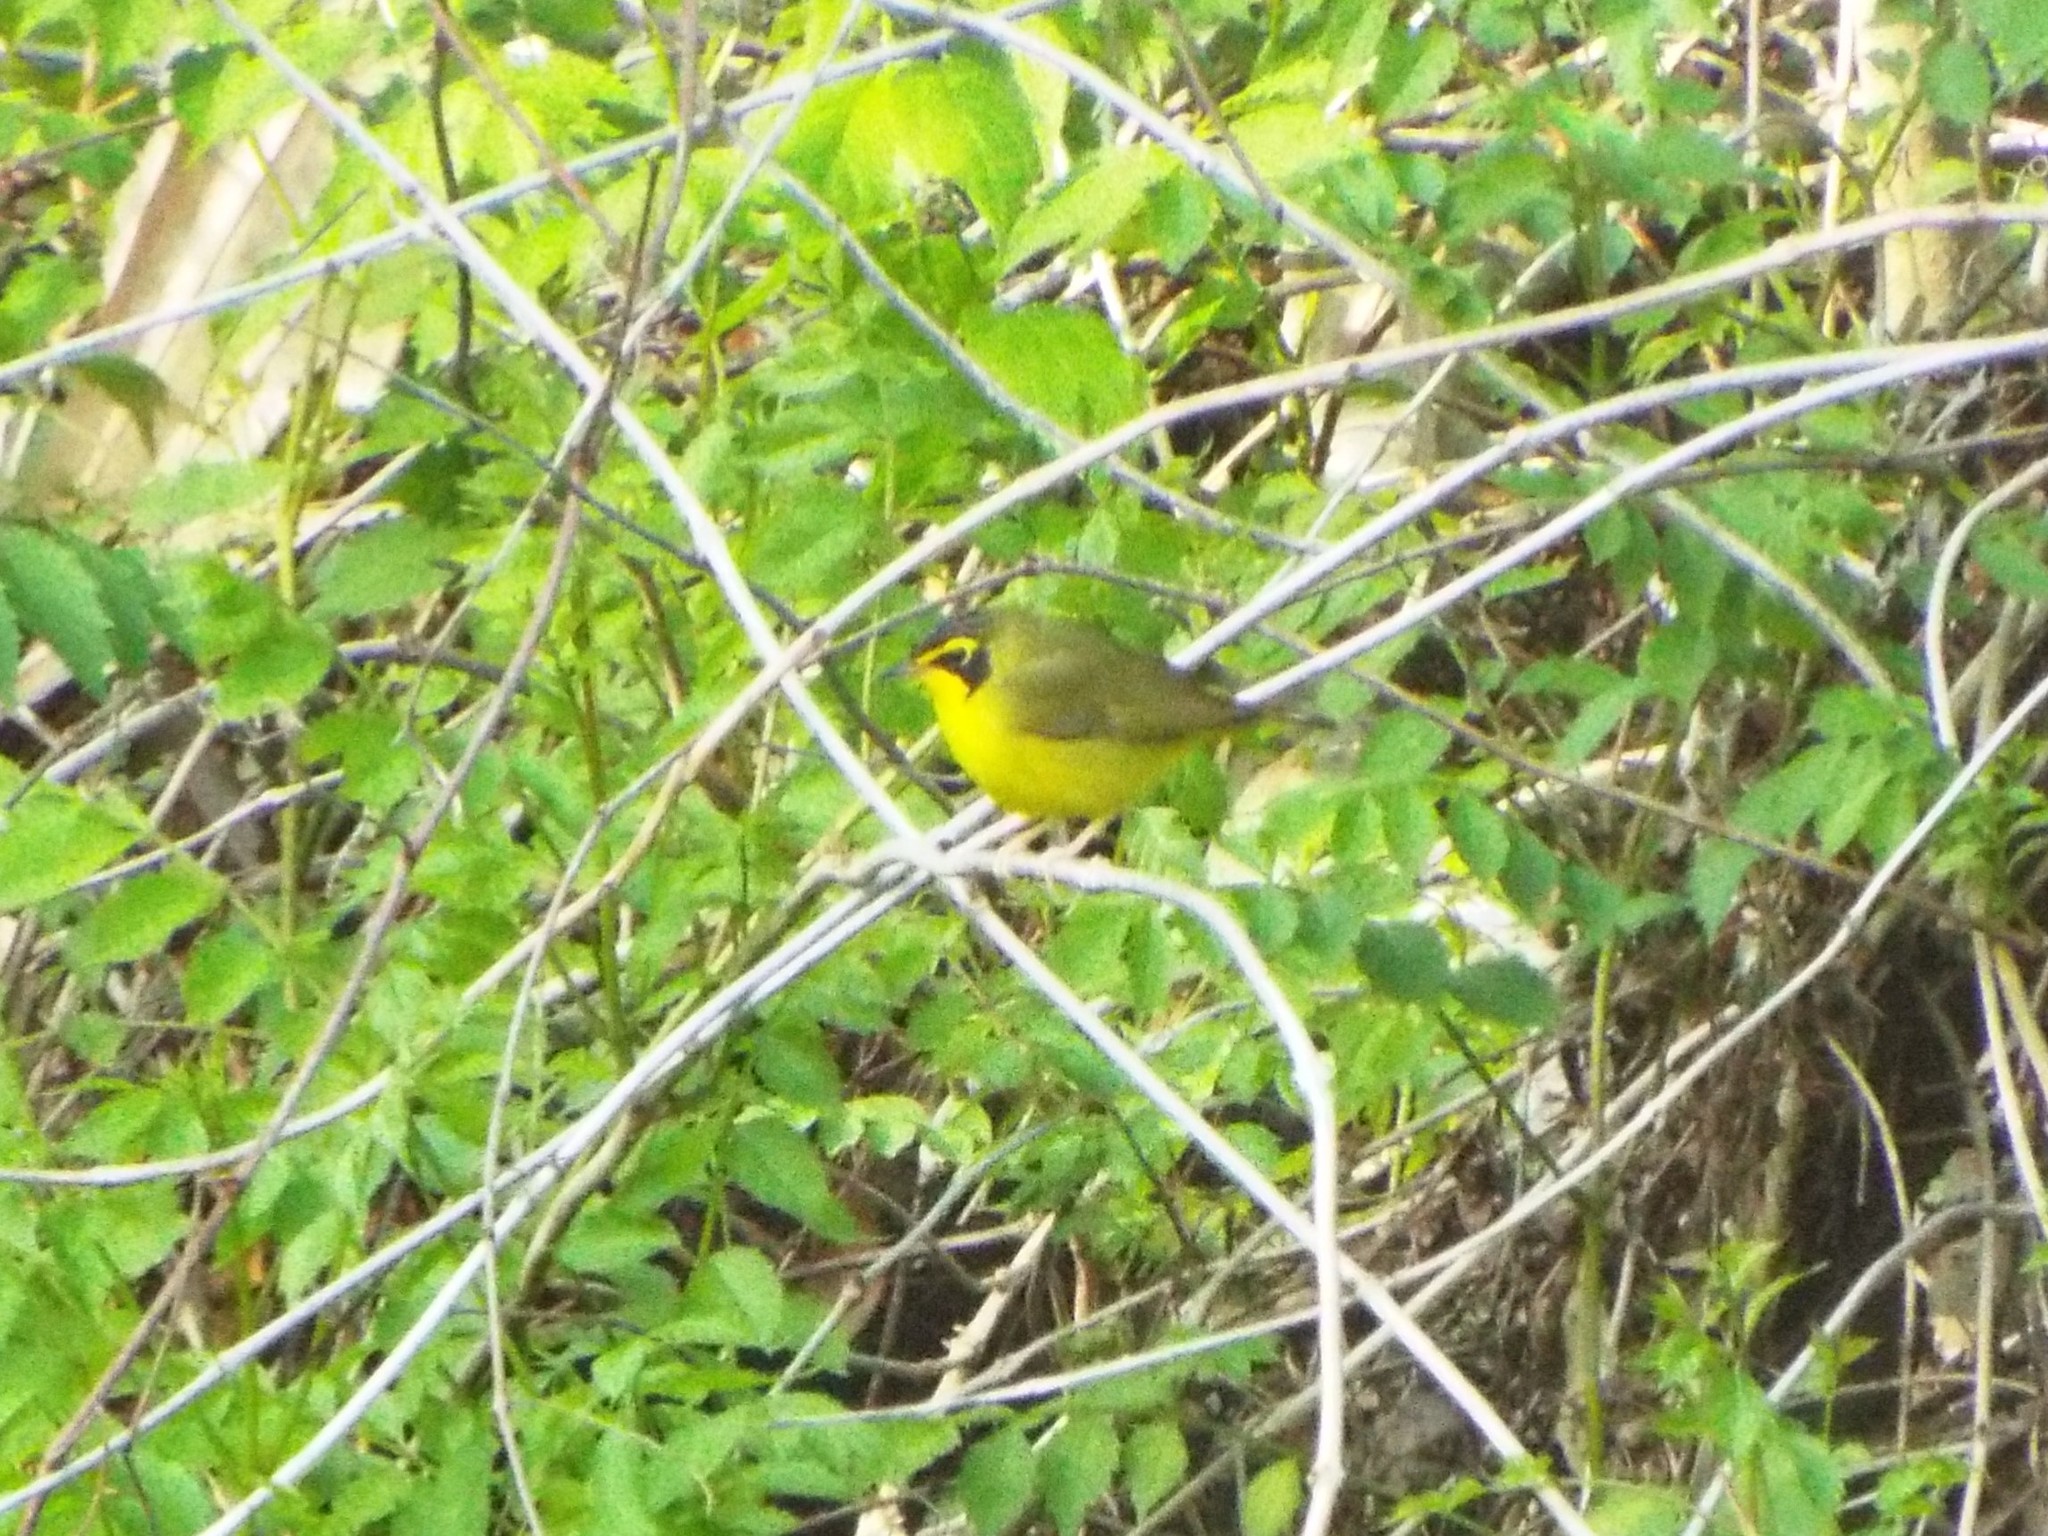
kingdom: Animalia
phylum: Chordata
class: Aves
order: Passeriformes
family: Parulidae
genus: Geothlypis
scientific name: Geothlypis formosa
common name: Kentucky warbler
